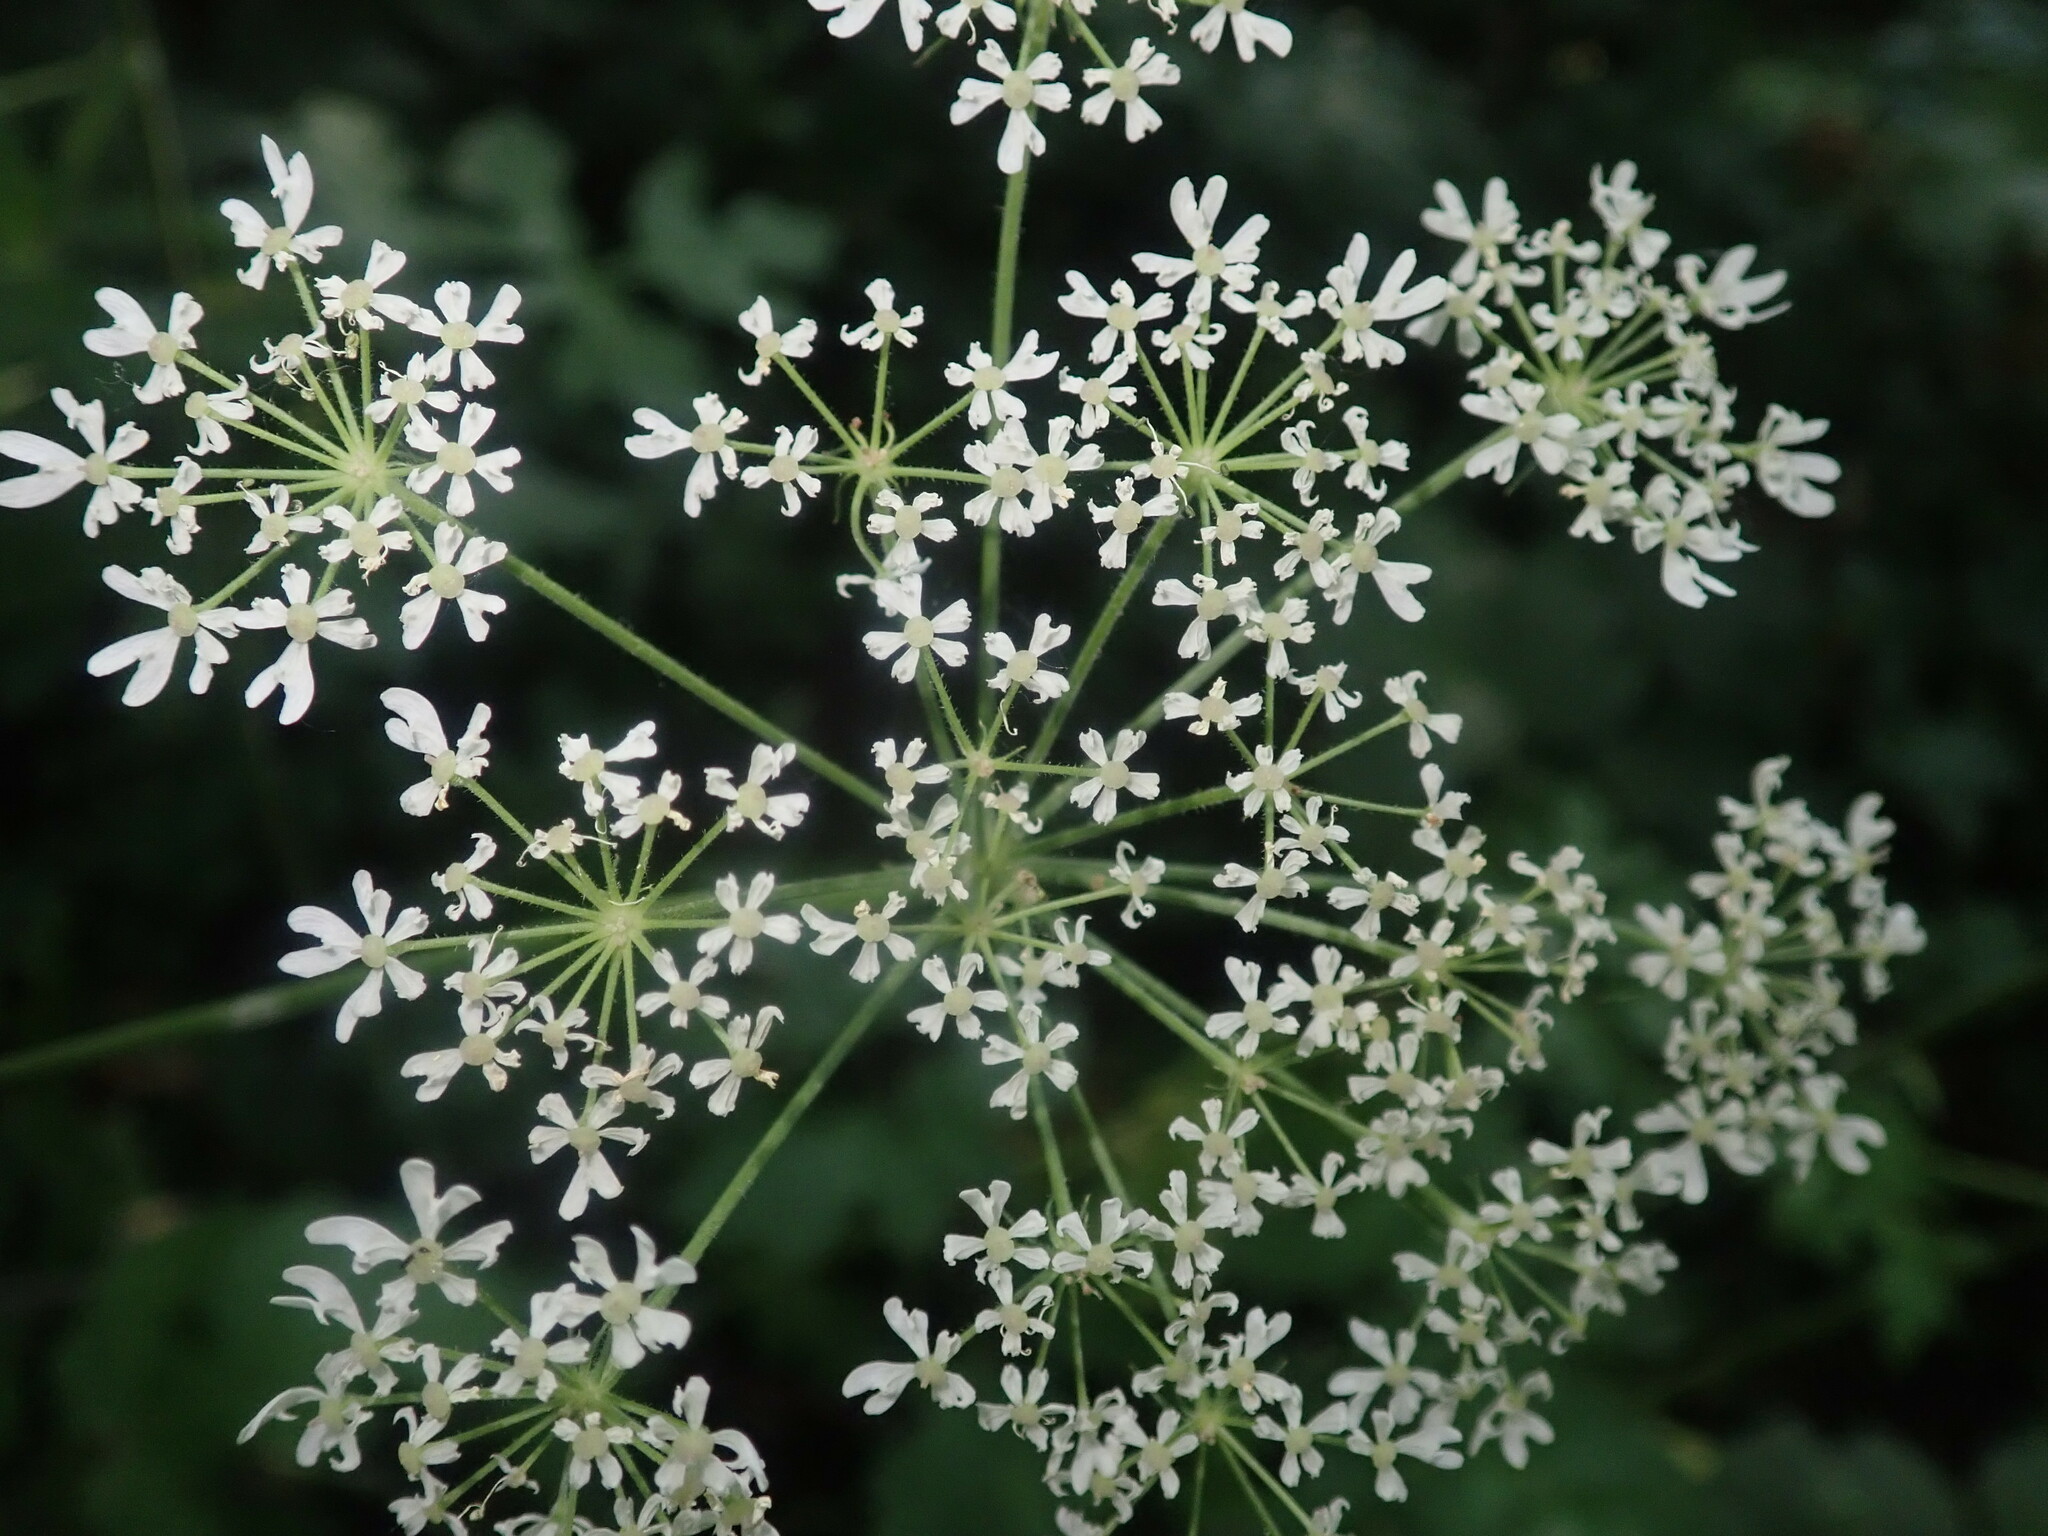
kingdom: Plantae
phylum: Tracheophyta
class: Magnoliopsida
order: Apiales
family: Apiaceae
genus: Heracleum
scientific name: Heracleum sphondylium
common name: Hogweed
